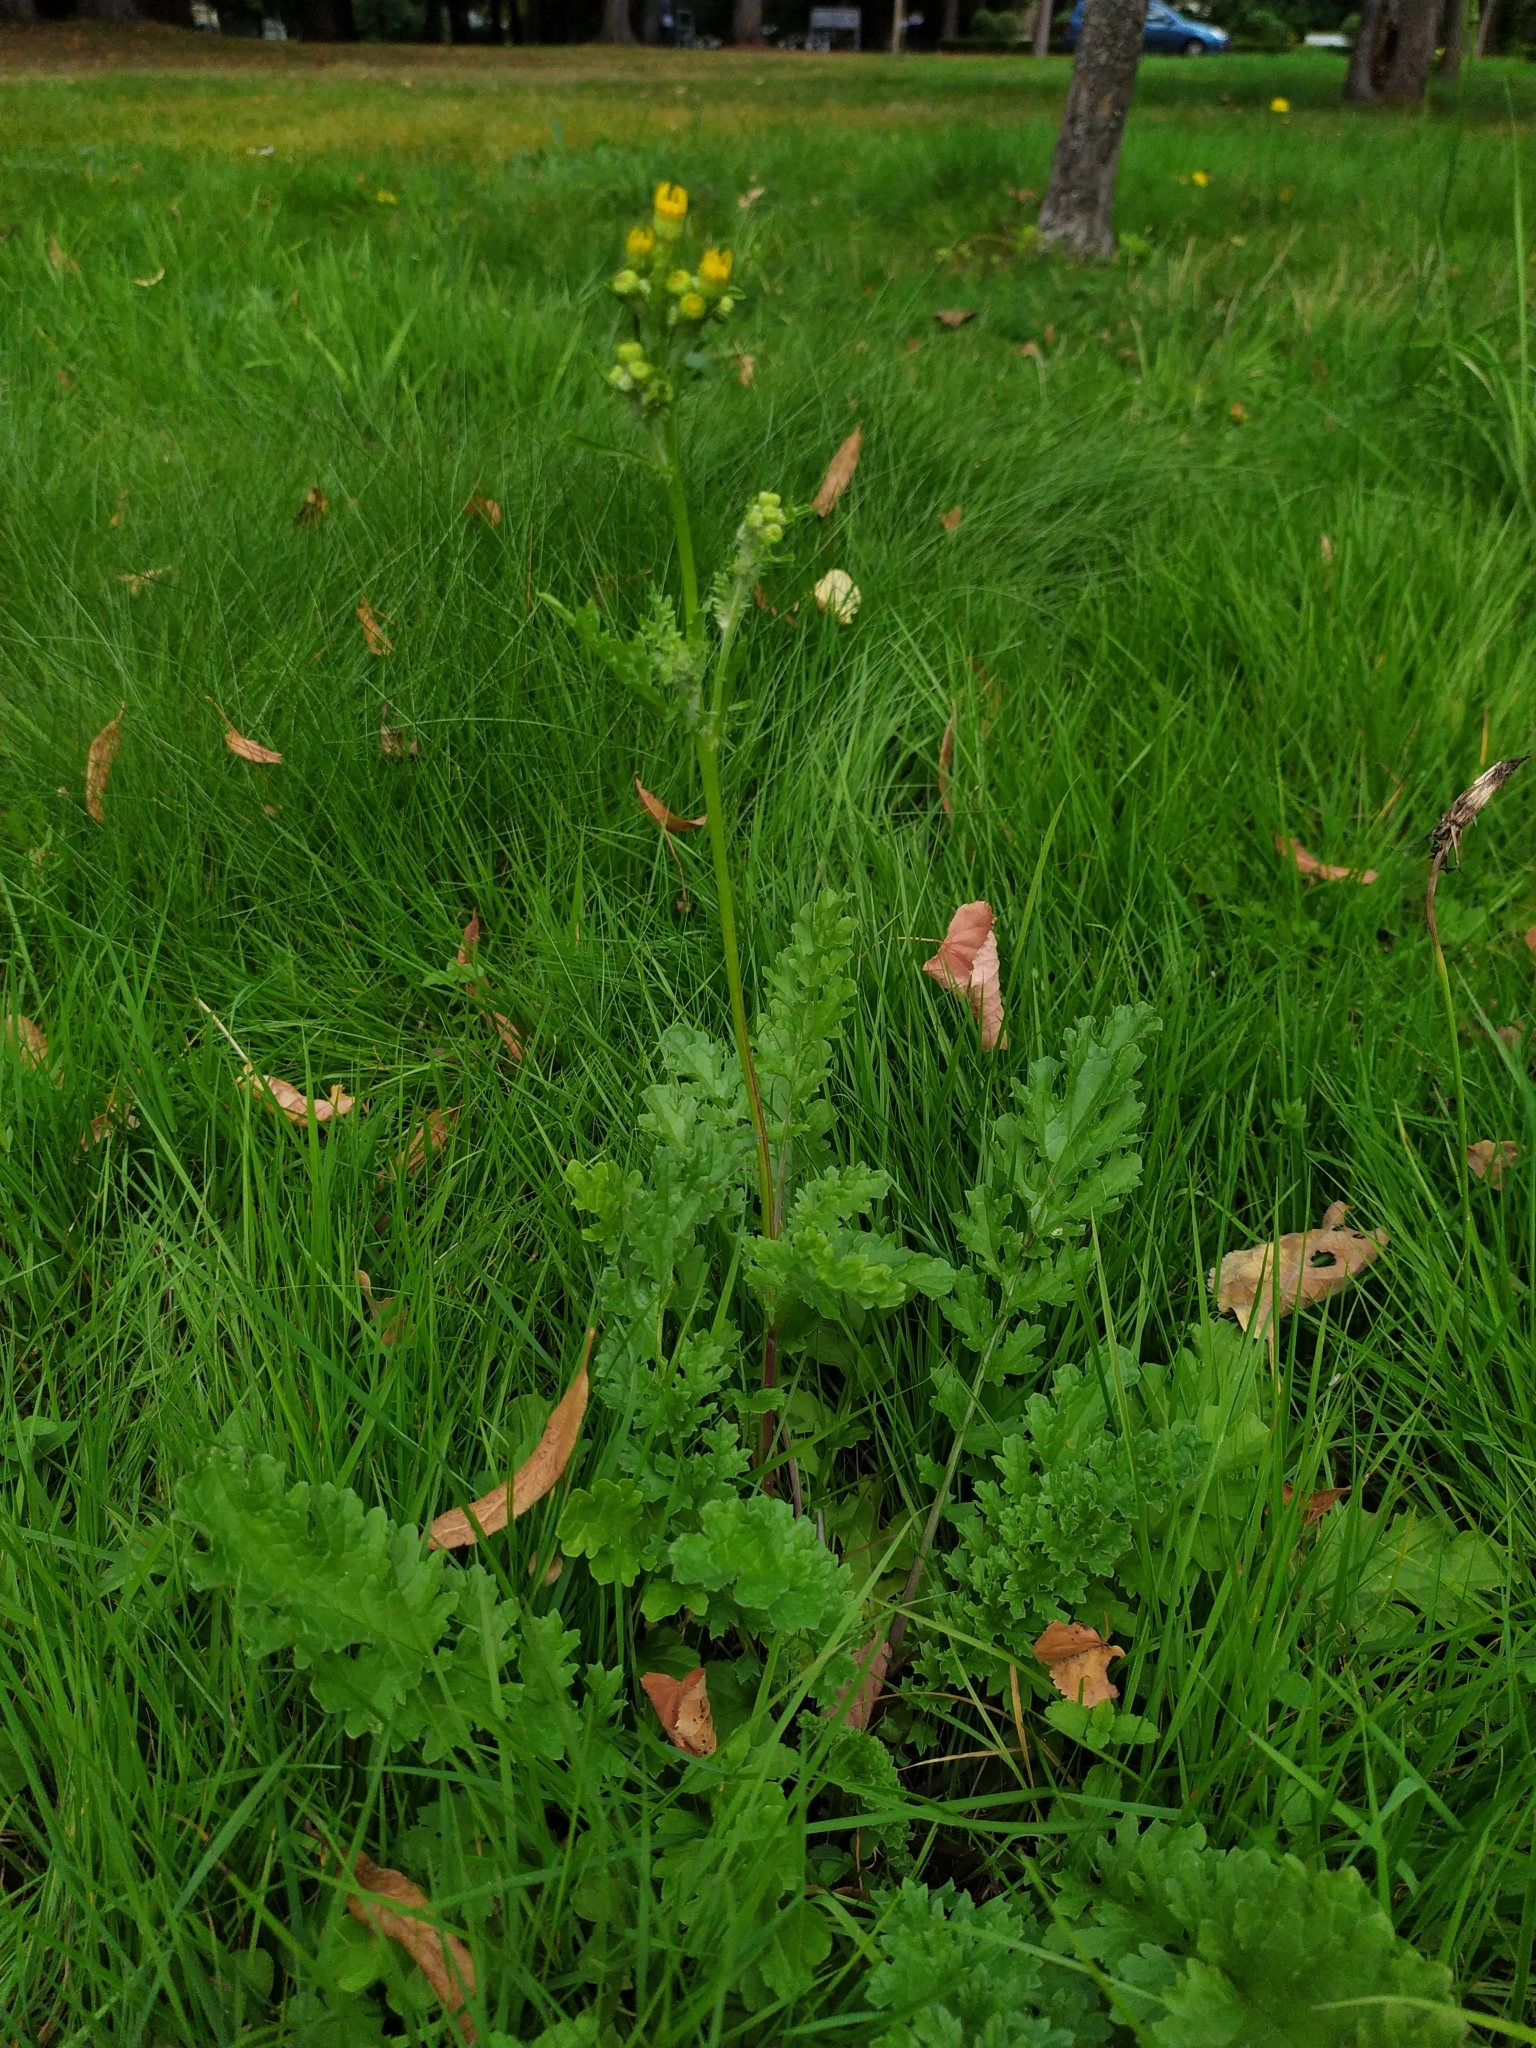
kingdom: Plantae
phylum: Tracheophyta
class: Magnoliopsida
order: Asterales
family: Asteraceae
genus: Jacobaea
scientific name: Jacobaea vulgaris
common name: Stinking willie
